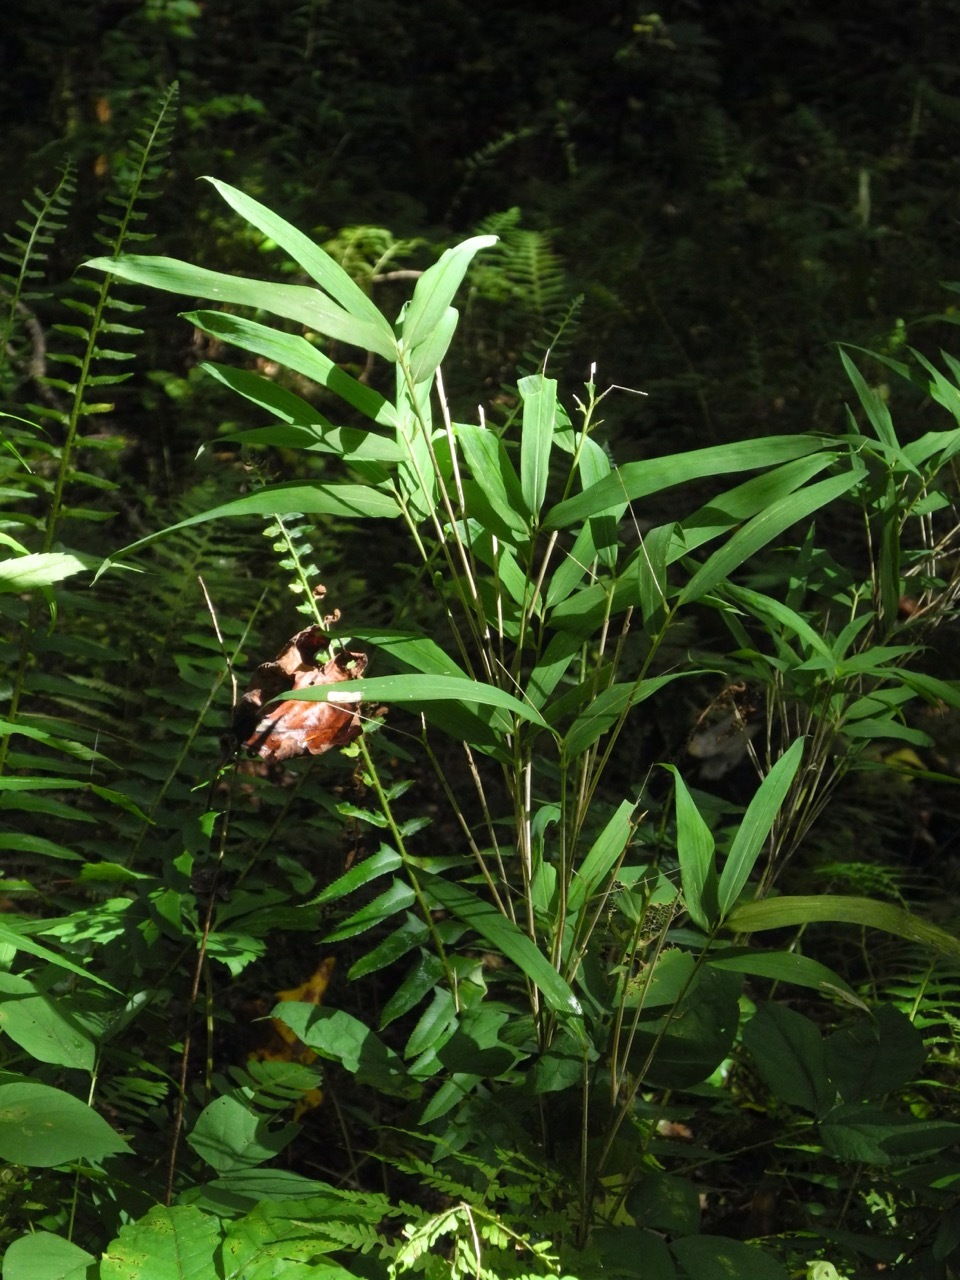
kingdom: Plantae
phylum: Tracheophyta
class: Liliopsida
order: Poales
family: Poaceae
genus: Arundinaria
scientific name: Arundinaria appalachiana
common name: Hill cane
